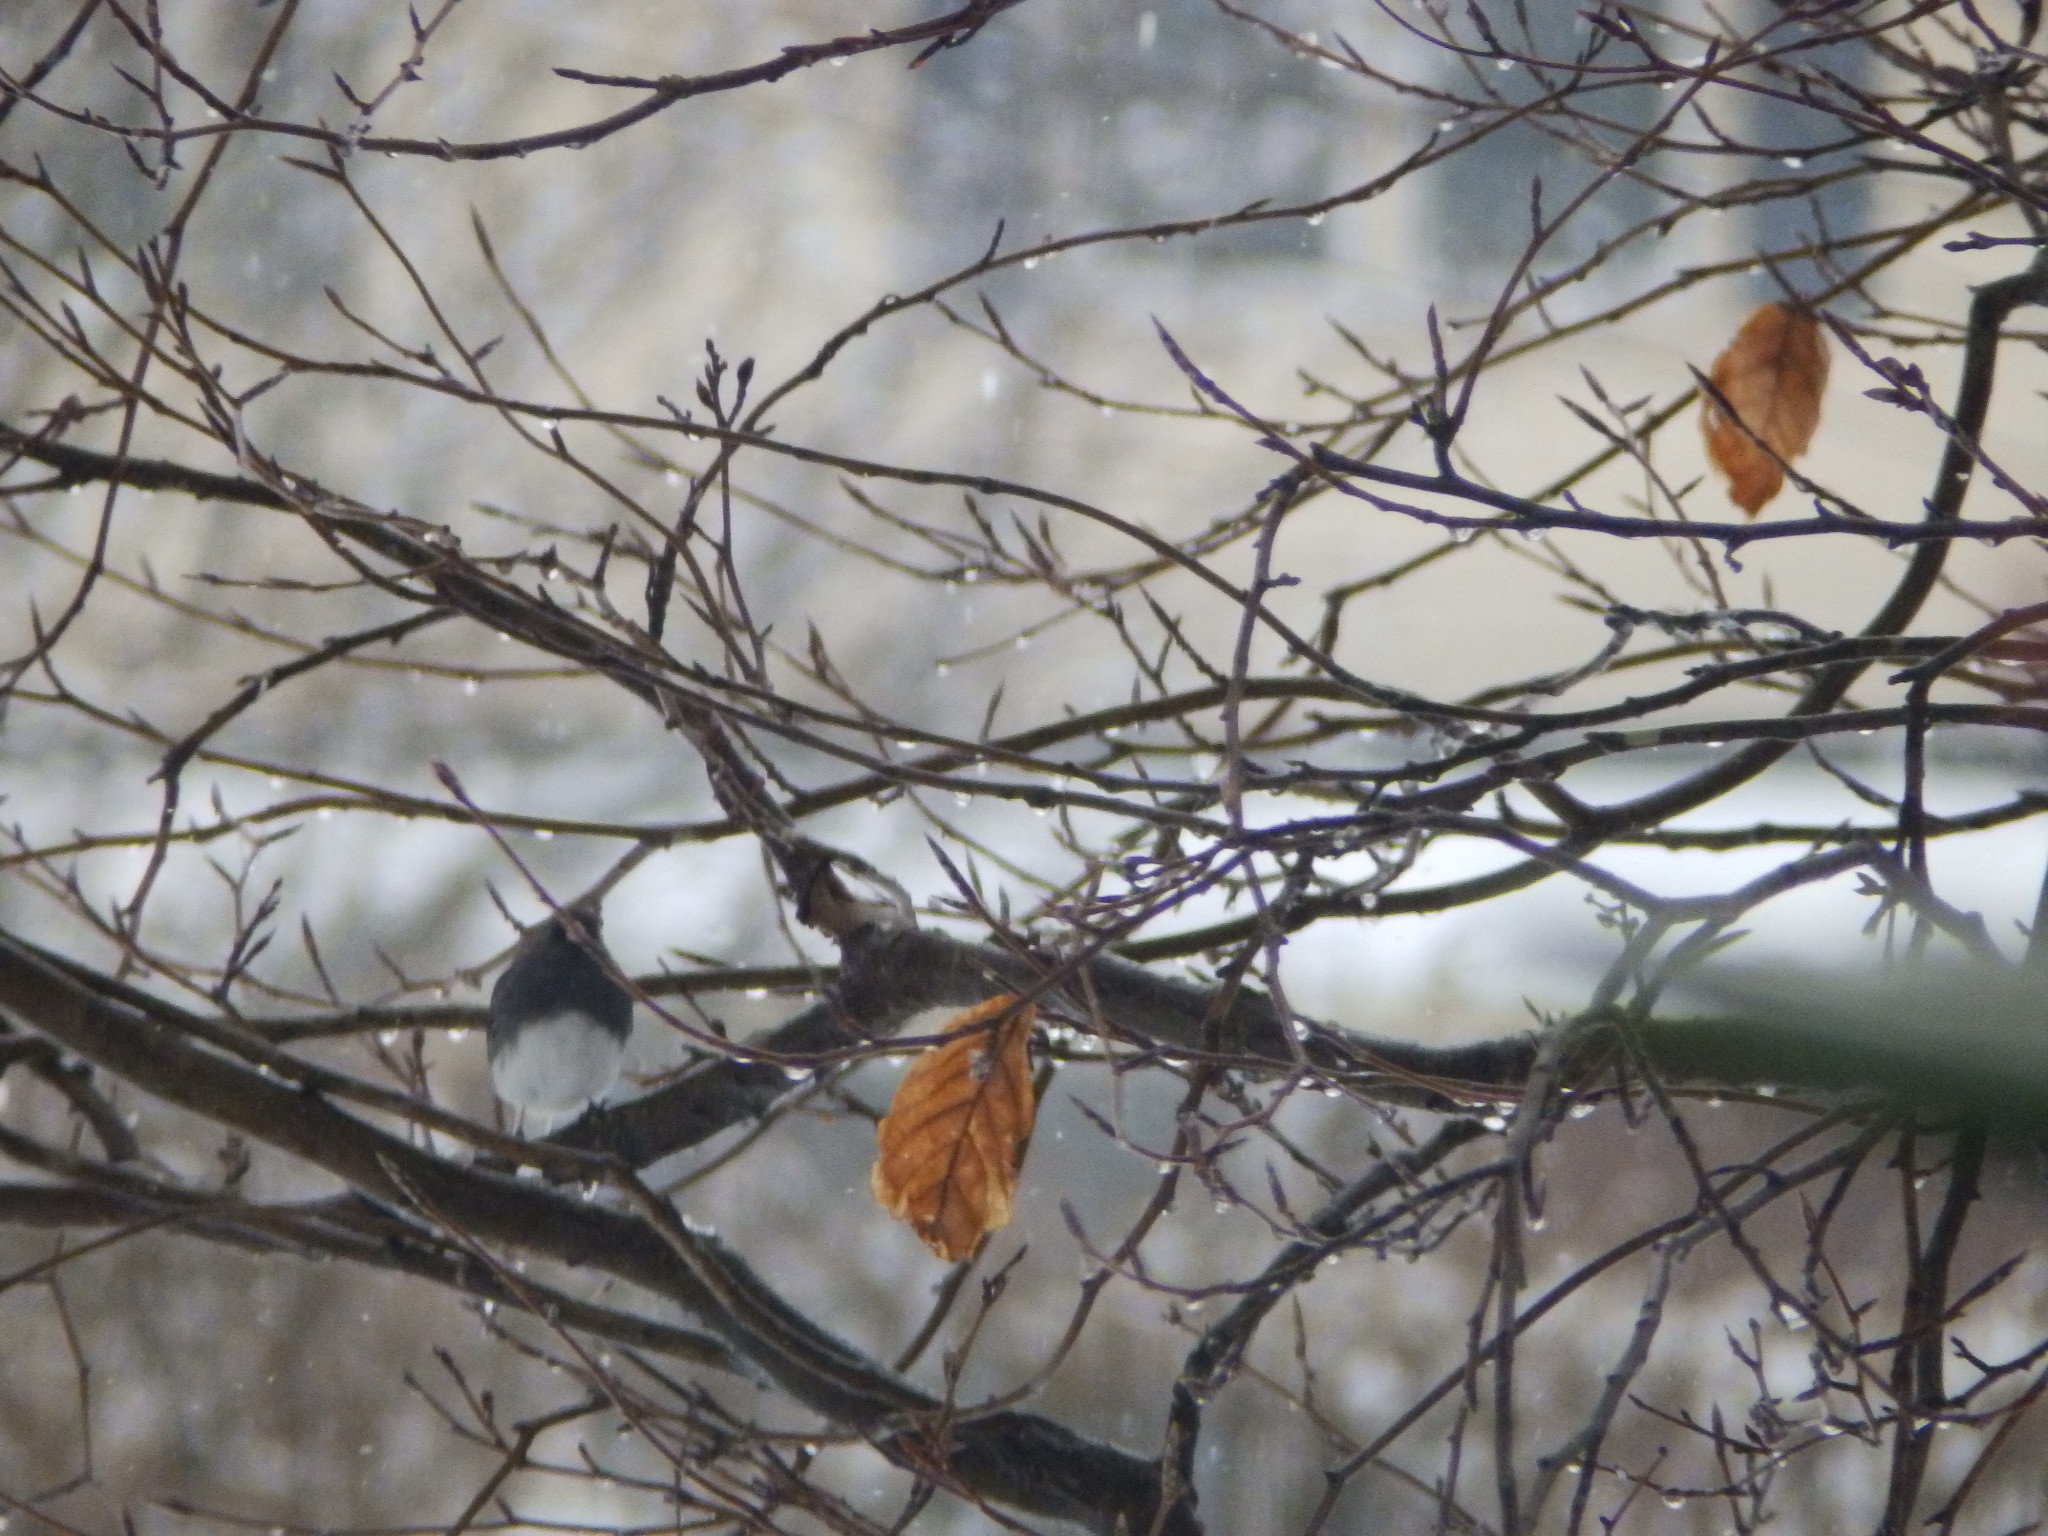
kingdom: Animalia
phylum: Chordata
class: Aves
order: Passeriformes
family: Passerellidae
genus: Junco
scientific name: Junco hyemalis
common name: Dark-eyed junco
